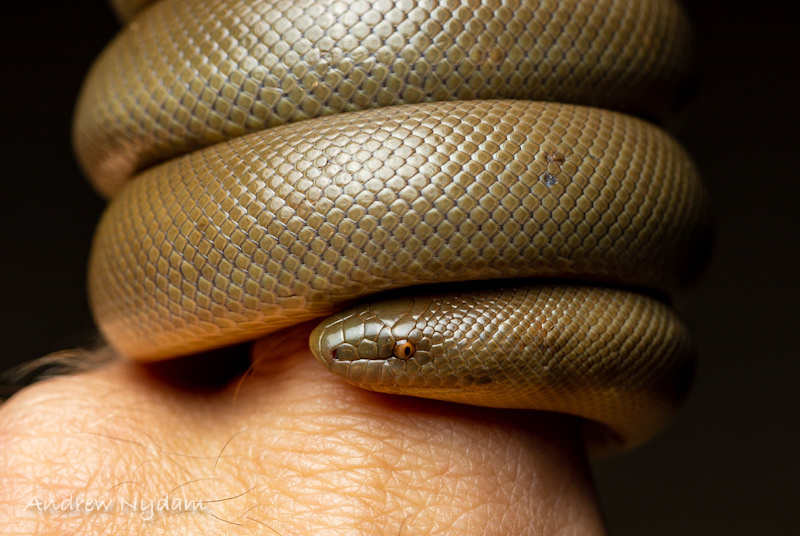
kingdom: Animalia
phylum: Chordata
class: Squamata
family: Boidae
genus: Charina
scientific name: Charina bottae
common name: Northern rubber boa
